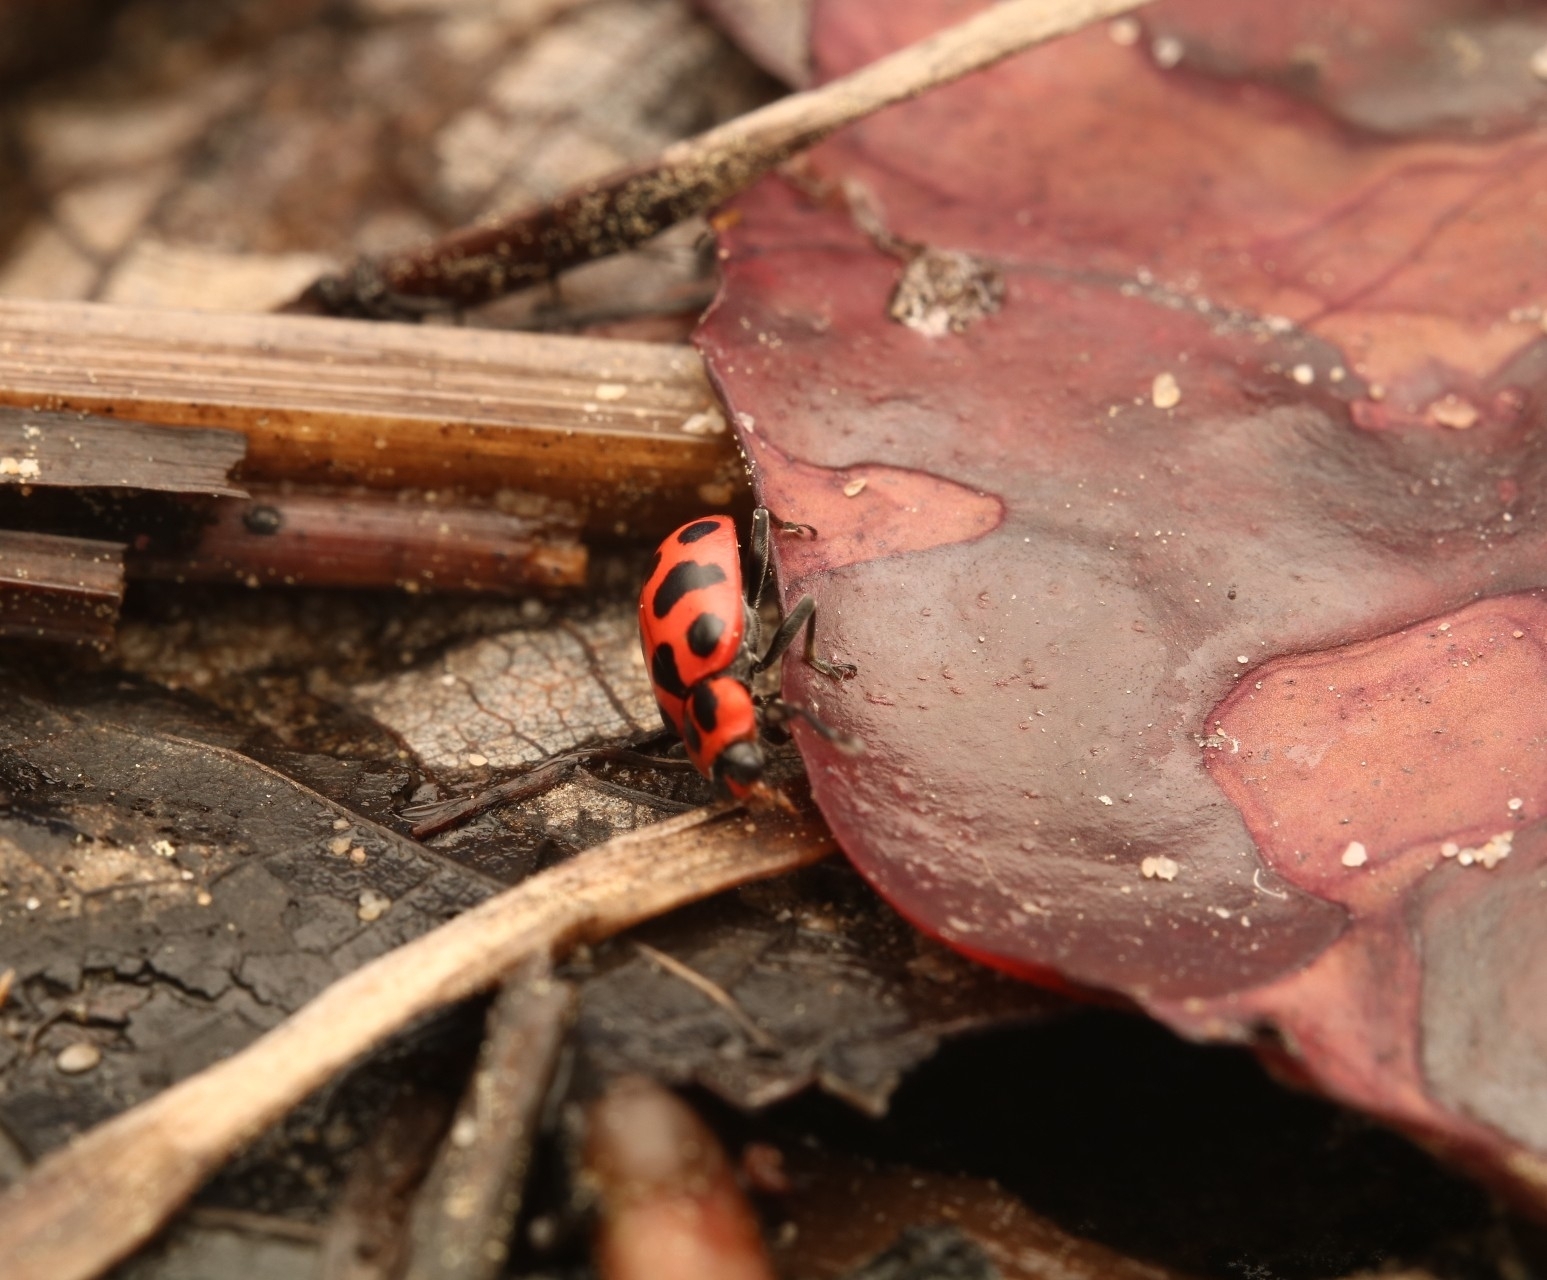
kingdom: Animalia
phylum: Arthropoda
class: Insecta
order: Coleoptera
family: Coccinellidae
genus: Coleomegilla
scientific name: Coleomegilla maculata
